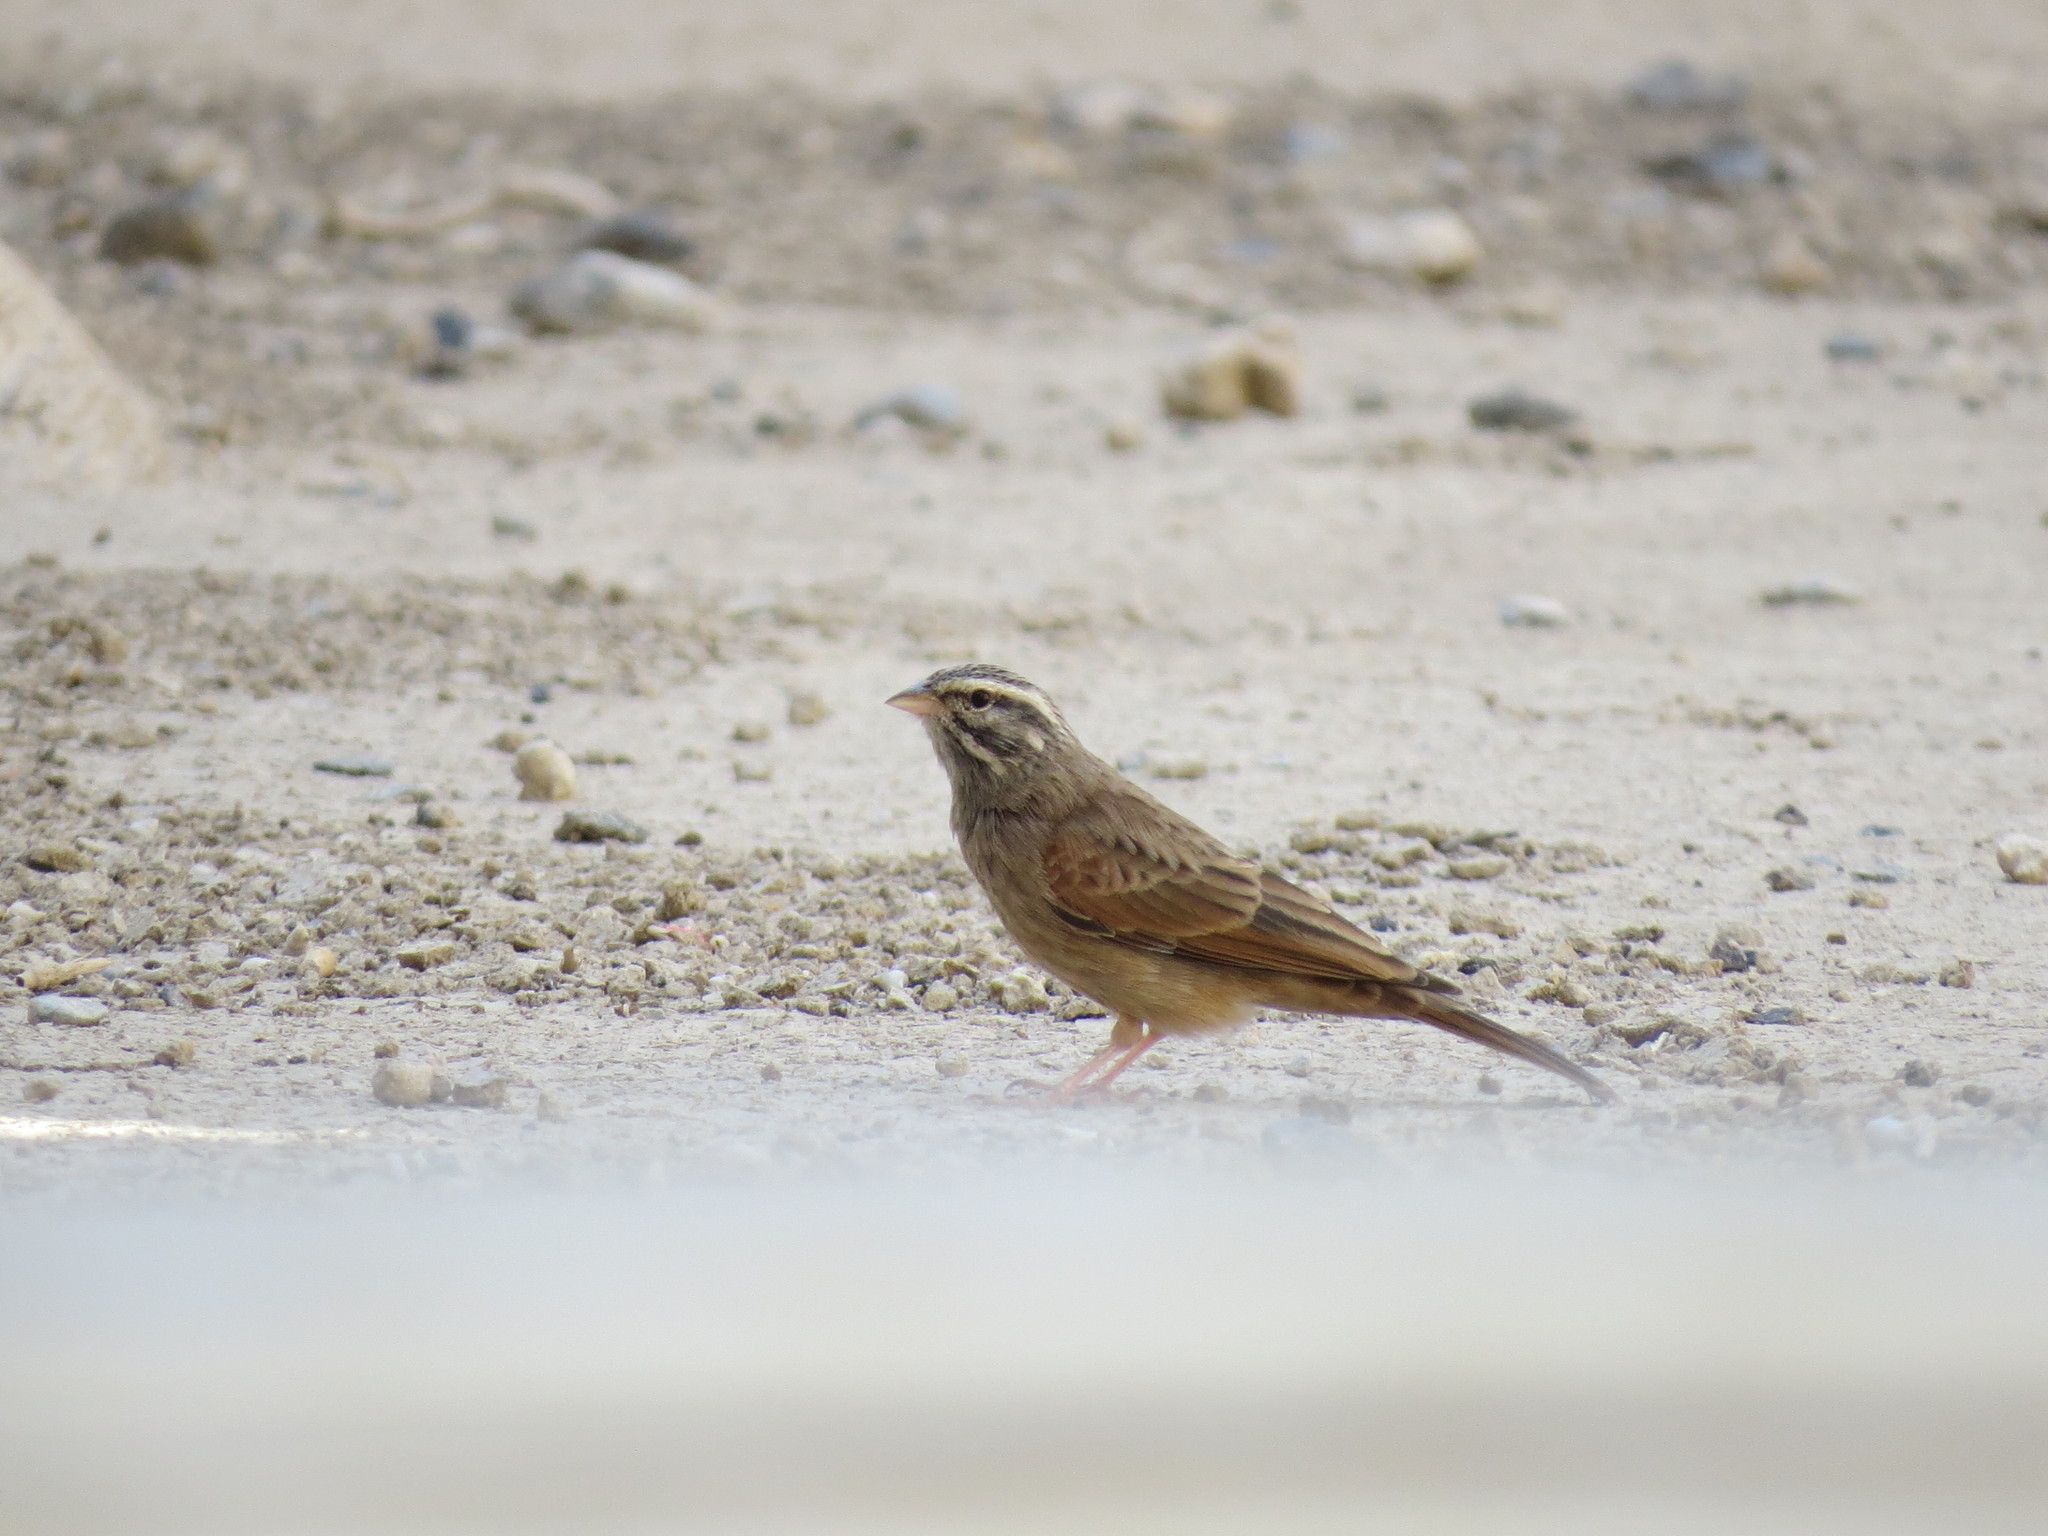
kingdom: Animalia
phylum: Chordata
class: Aves
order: Passeriformes
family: Emberizidae
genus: Emberiza
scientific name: Emberiza striolata
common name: Striolated bunting
